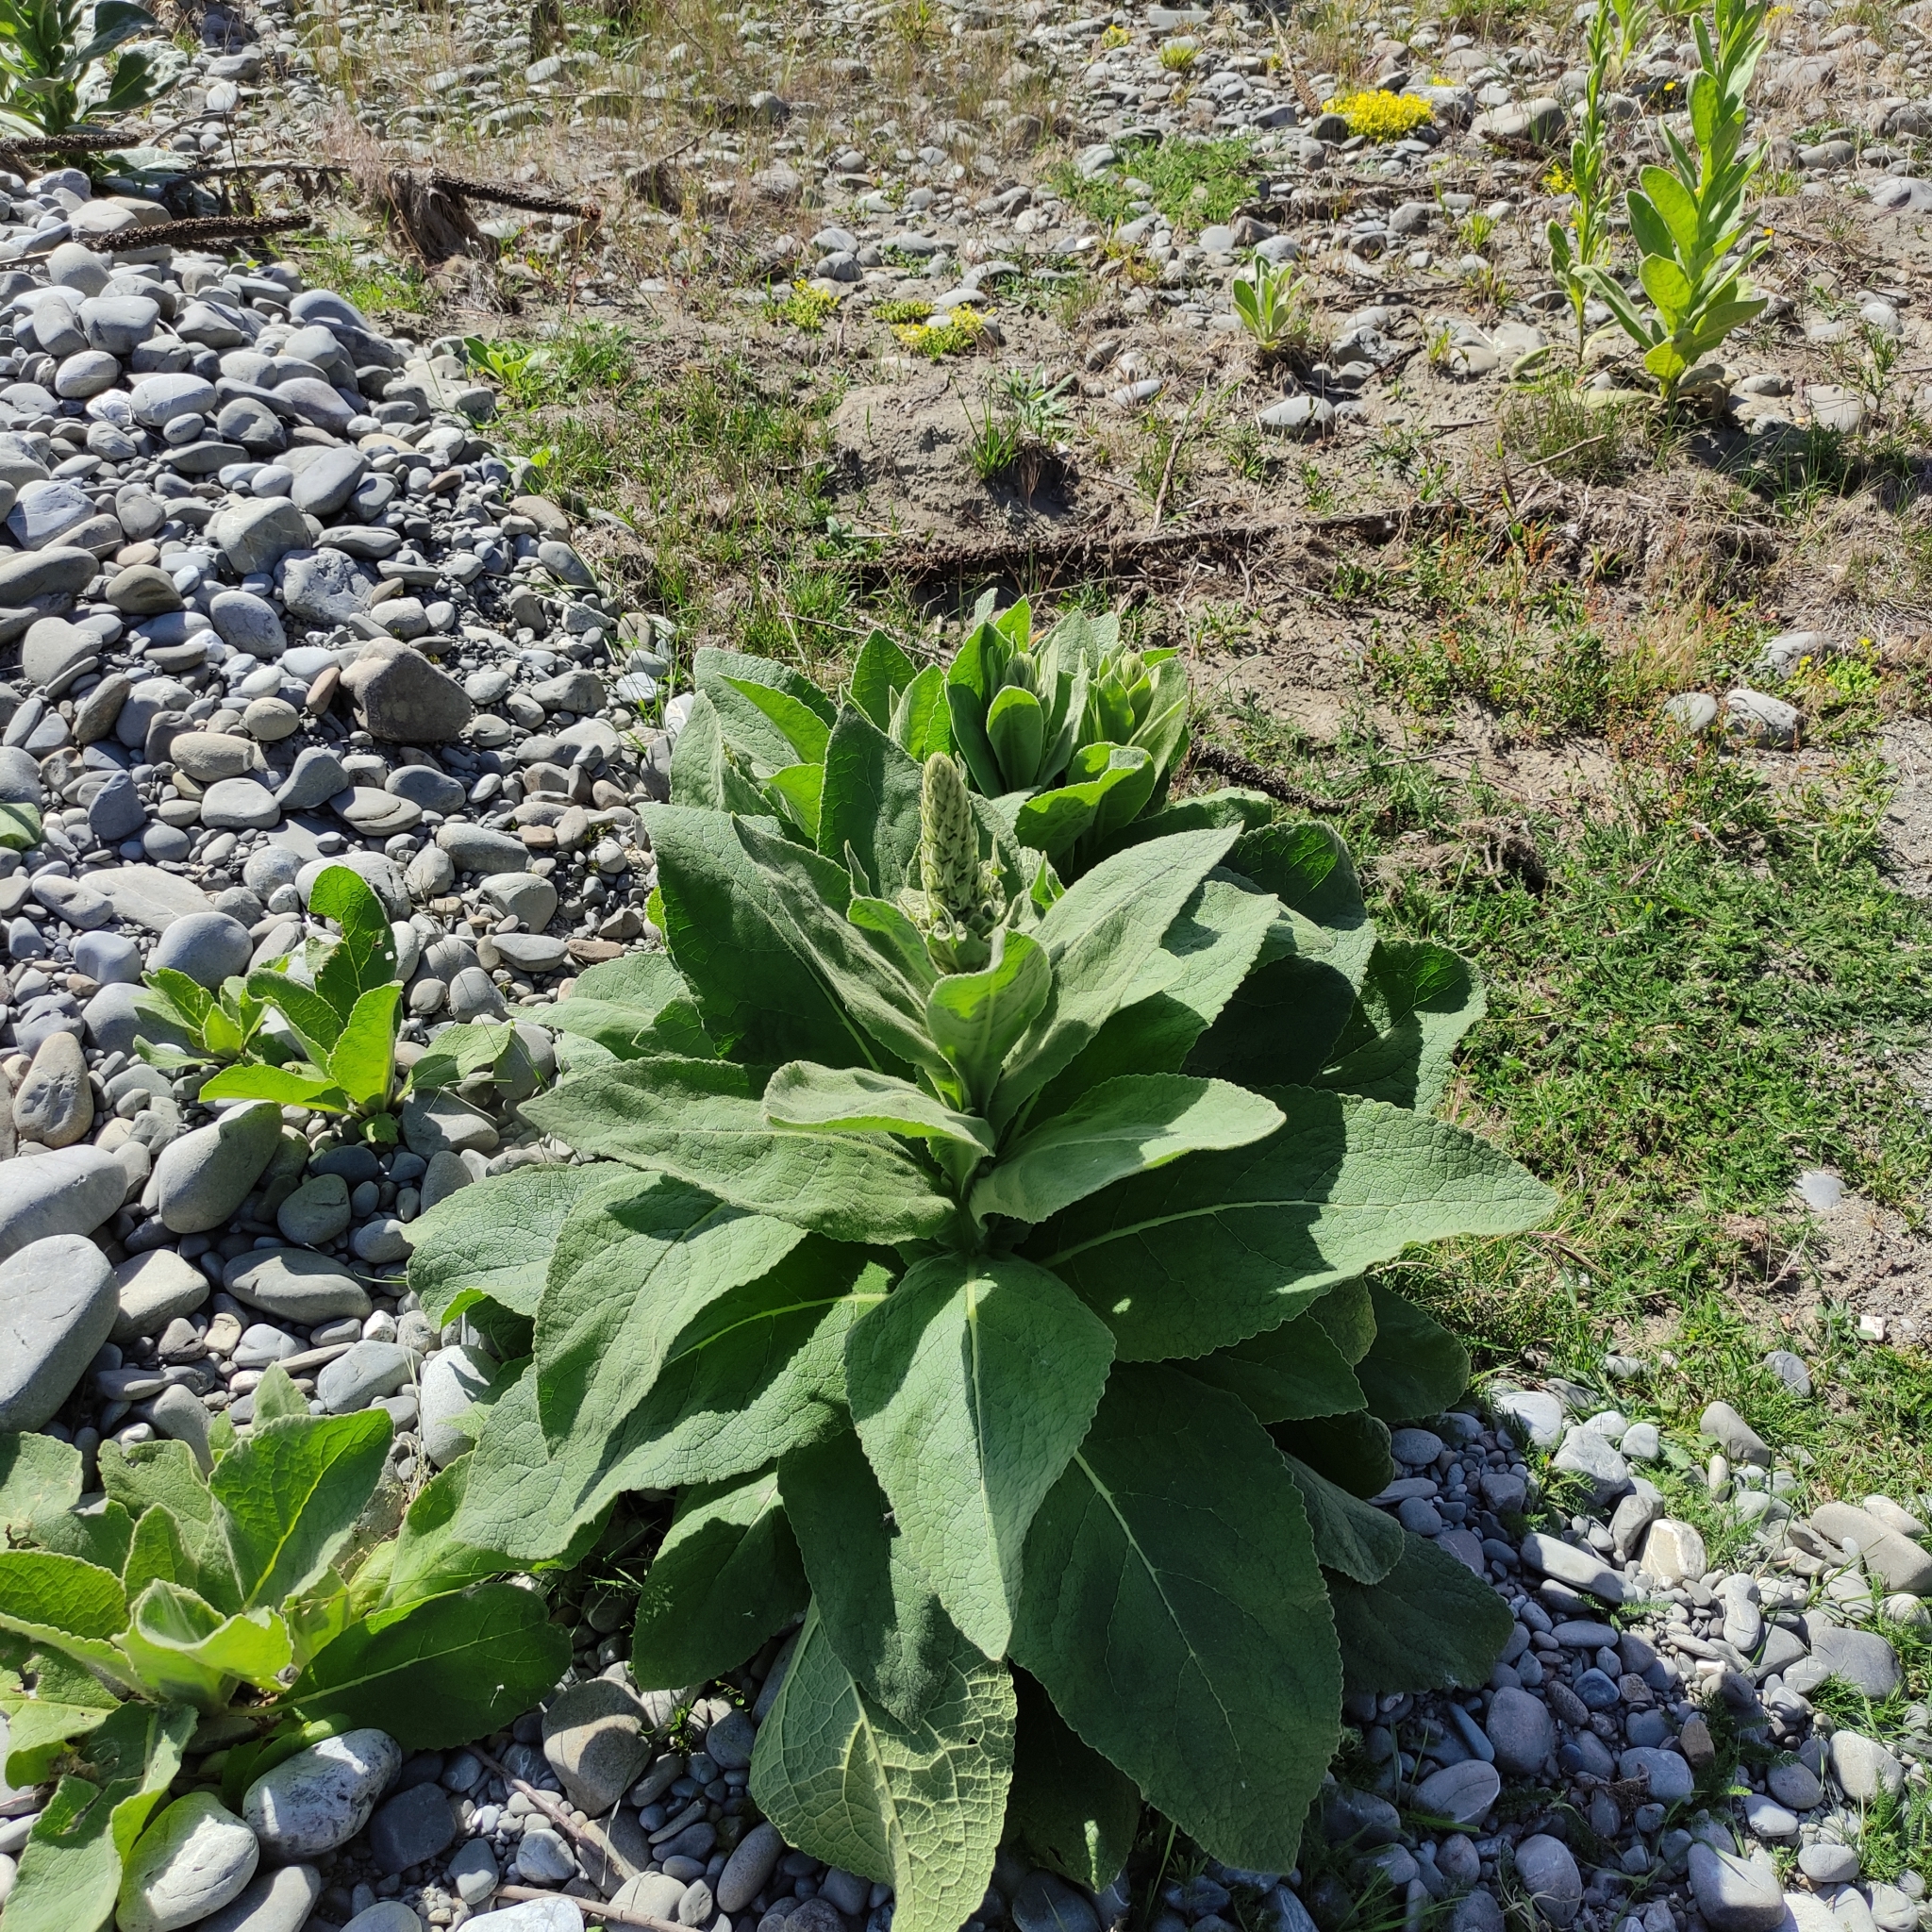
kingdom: Plantae
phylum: Tracheophyta
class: Magnoliopsida
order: Lamiales
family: Scrophulariaceae
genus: Verbascum
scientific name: Verbascum thapsus
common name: Common mullein
